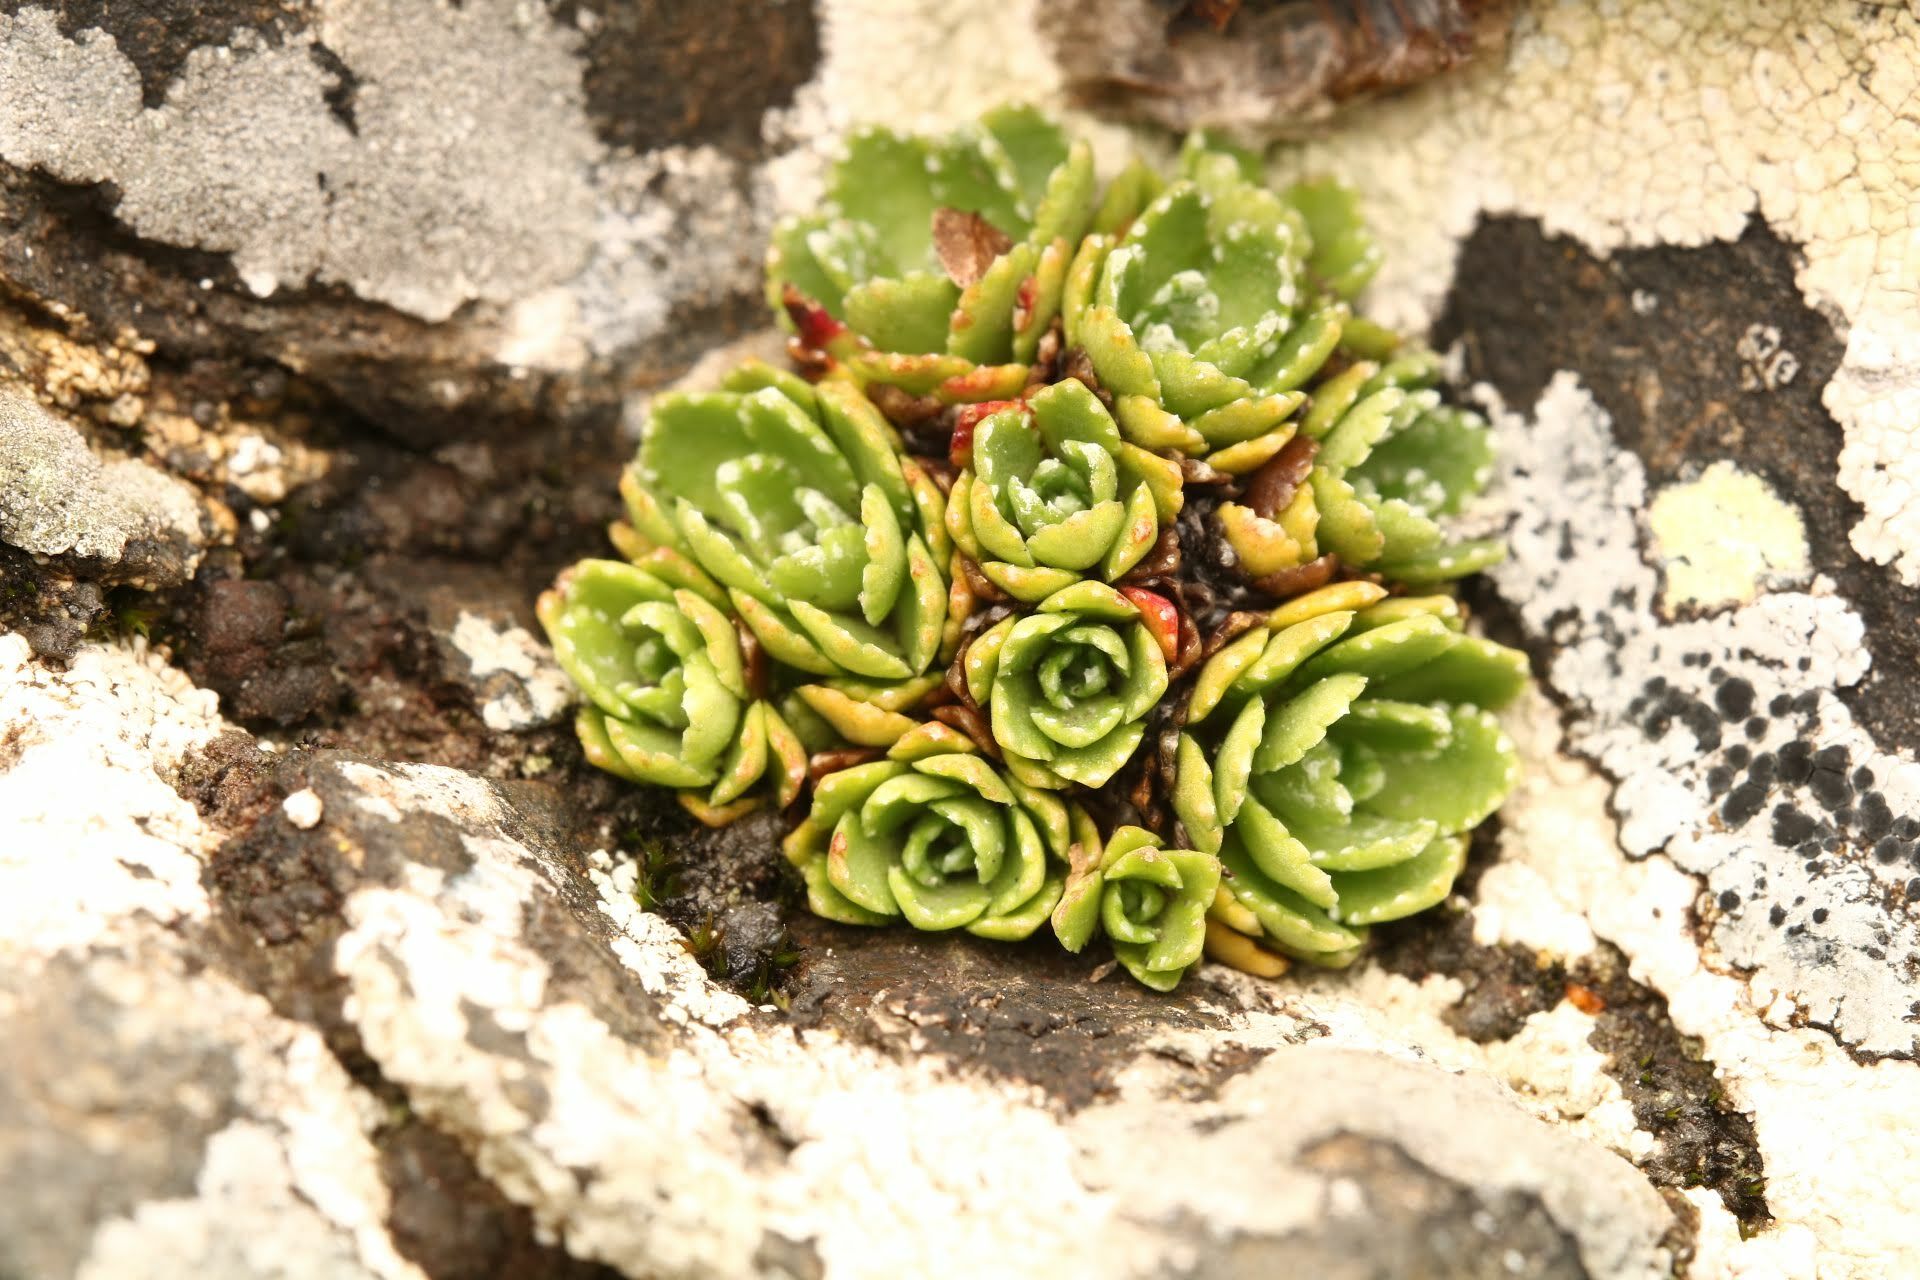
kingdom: Plantae
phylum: Tracheophyta
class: Magnoliopsida
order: Saxifragales
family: Saxifragaceae
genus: Saxifraga
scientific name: Saxifraga paniculata
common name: Livelong saxifrage
